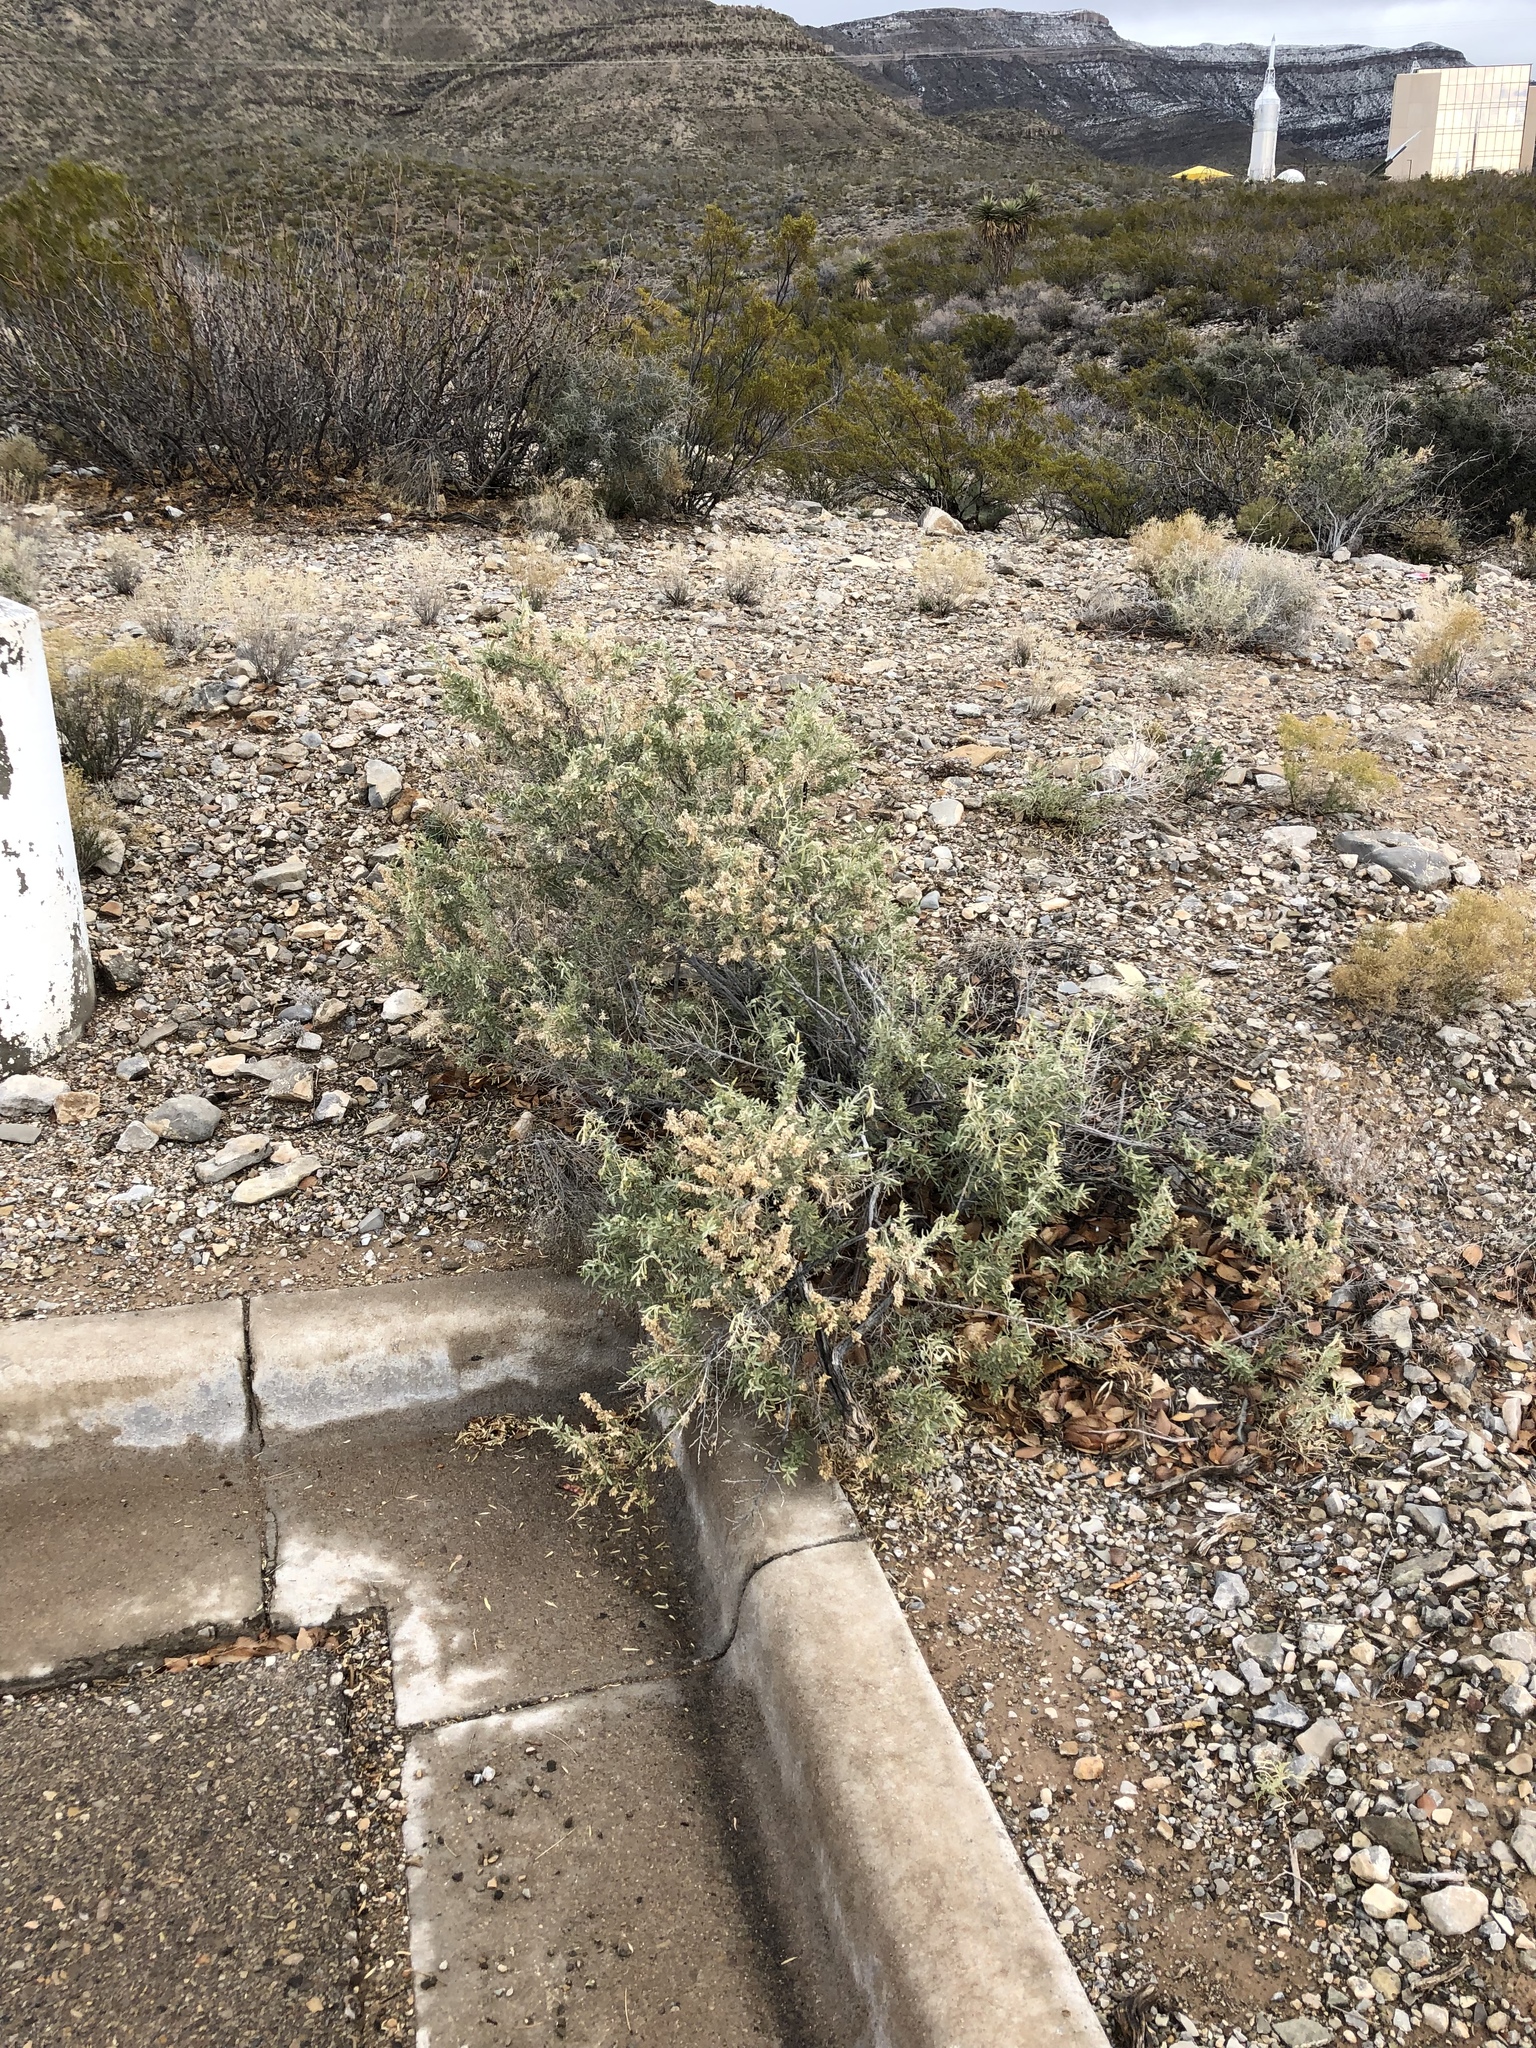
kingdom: Plantae
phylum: Tracheophyta
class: Magnoliopsida
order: Caryophyllales
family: Amaranthaceae
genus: Atriplex
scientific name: Atriplex canescens
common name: Four-wing saltbush
